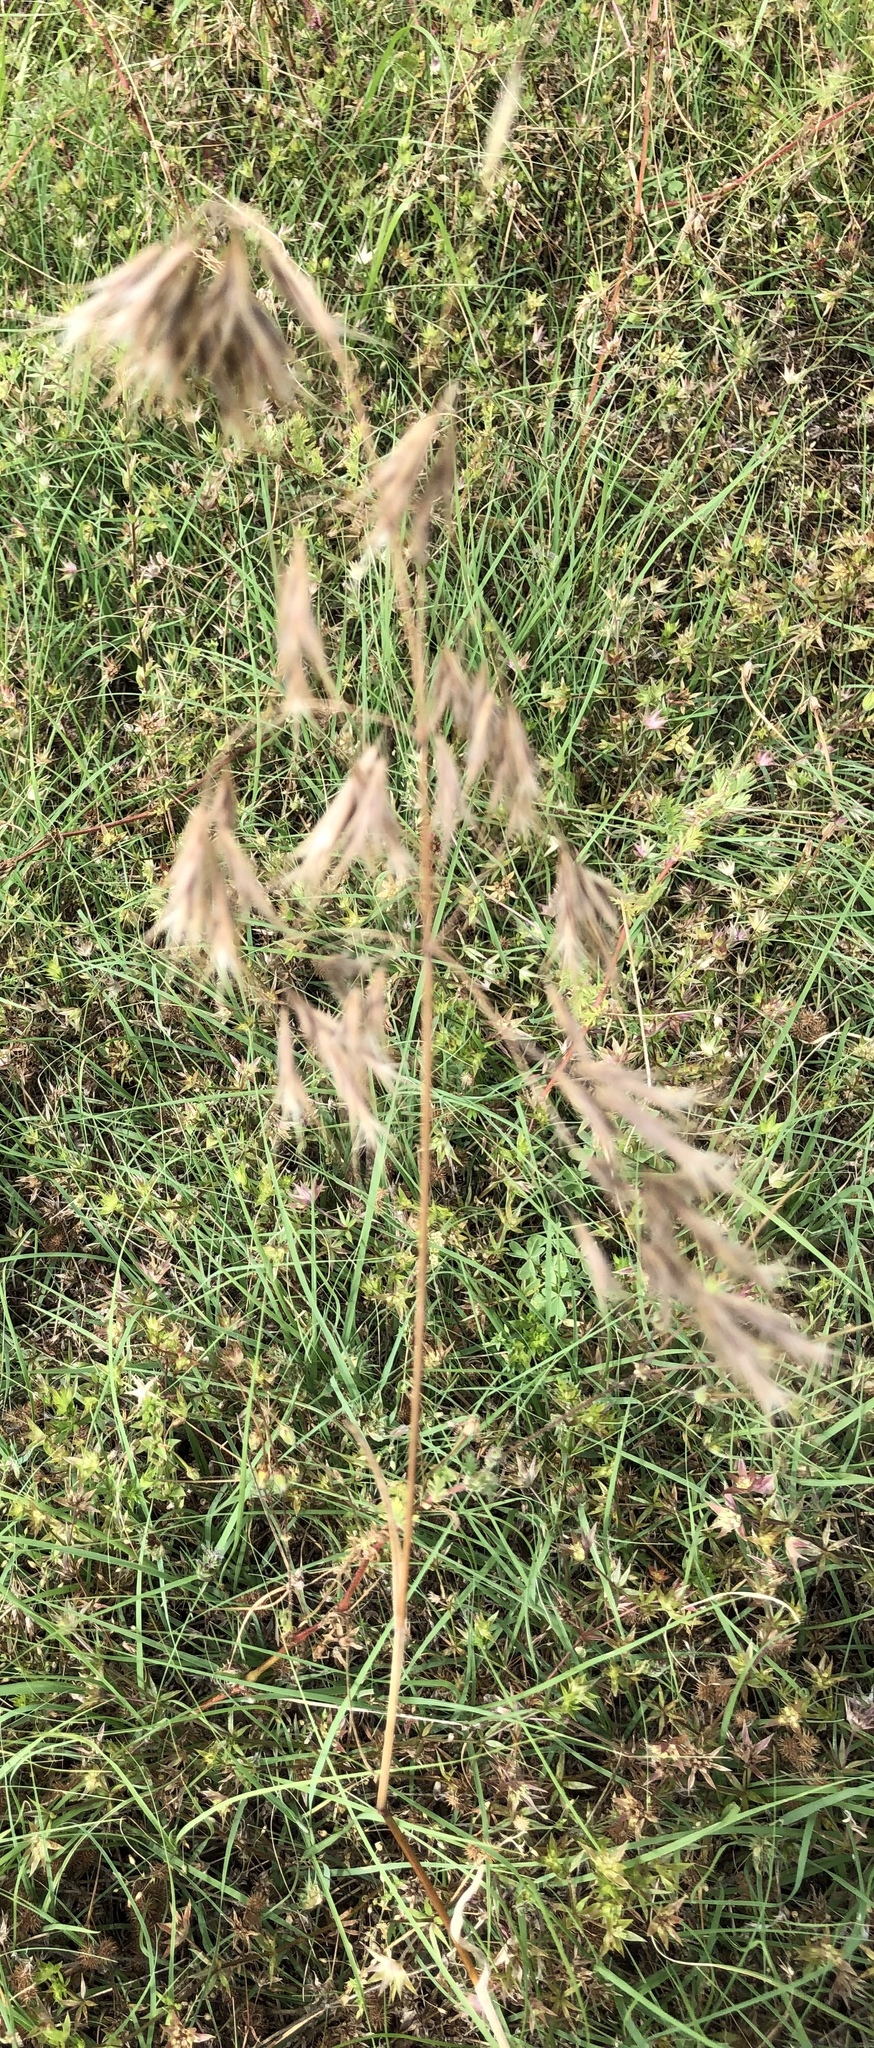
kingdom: Plantae
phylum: Tracheophyta
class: Liliopsida
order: Poales
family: Poaceae
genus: Bromus
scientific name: Bromus tectorum
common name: Cheatgrass
